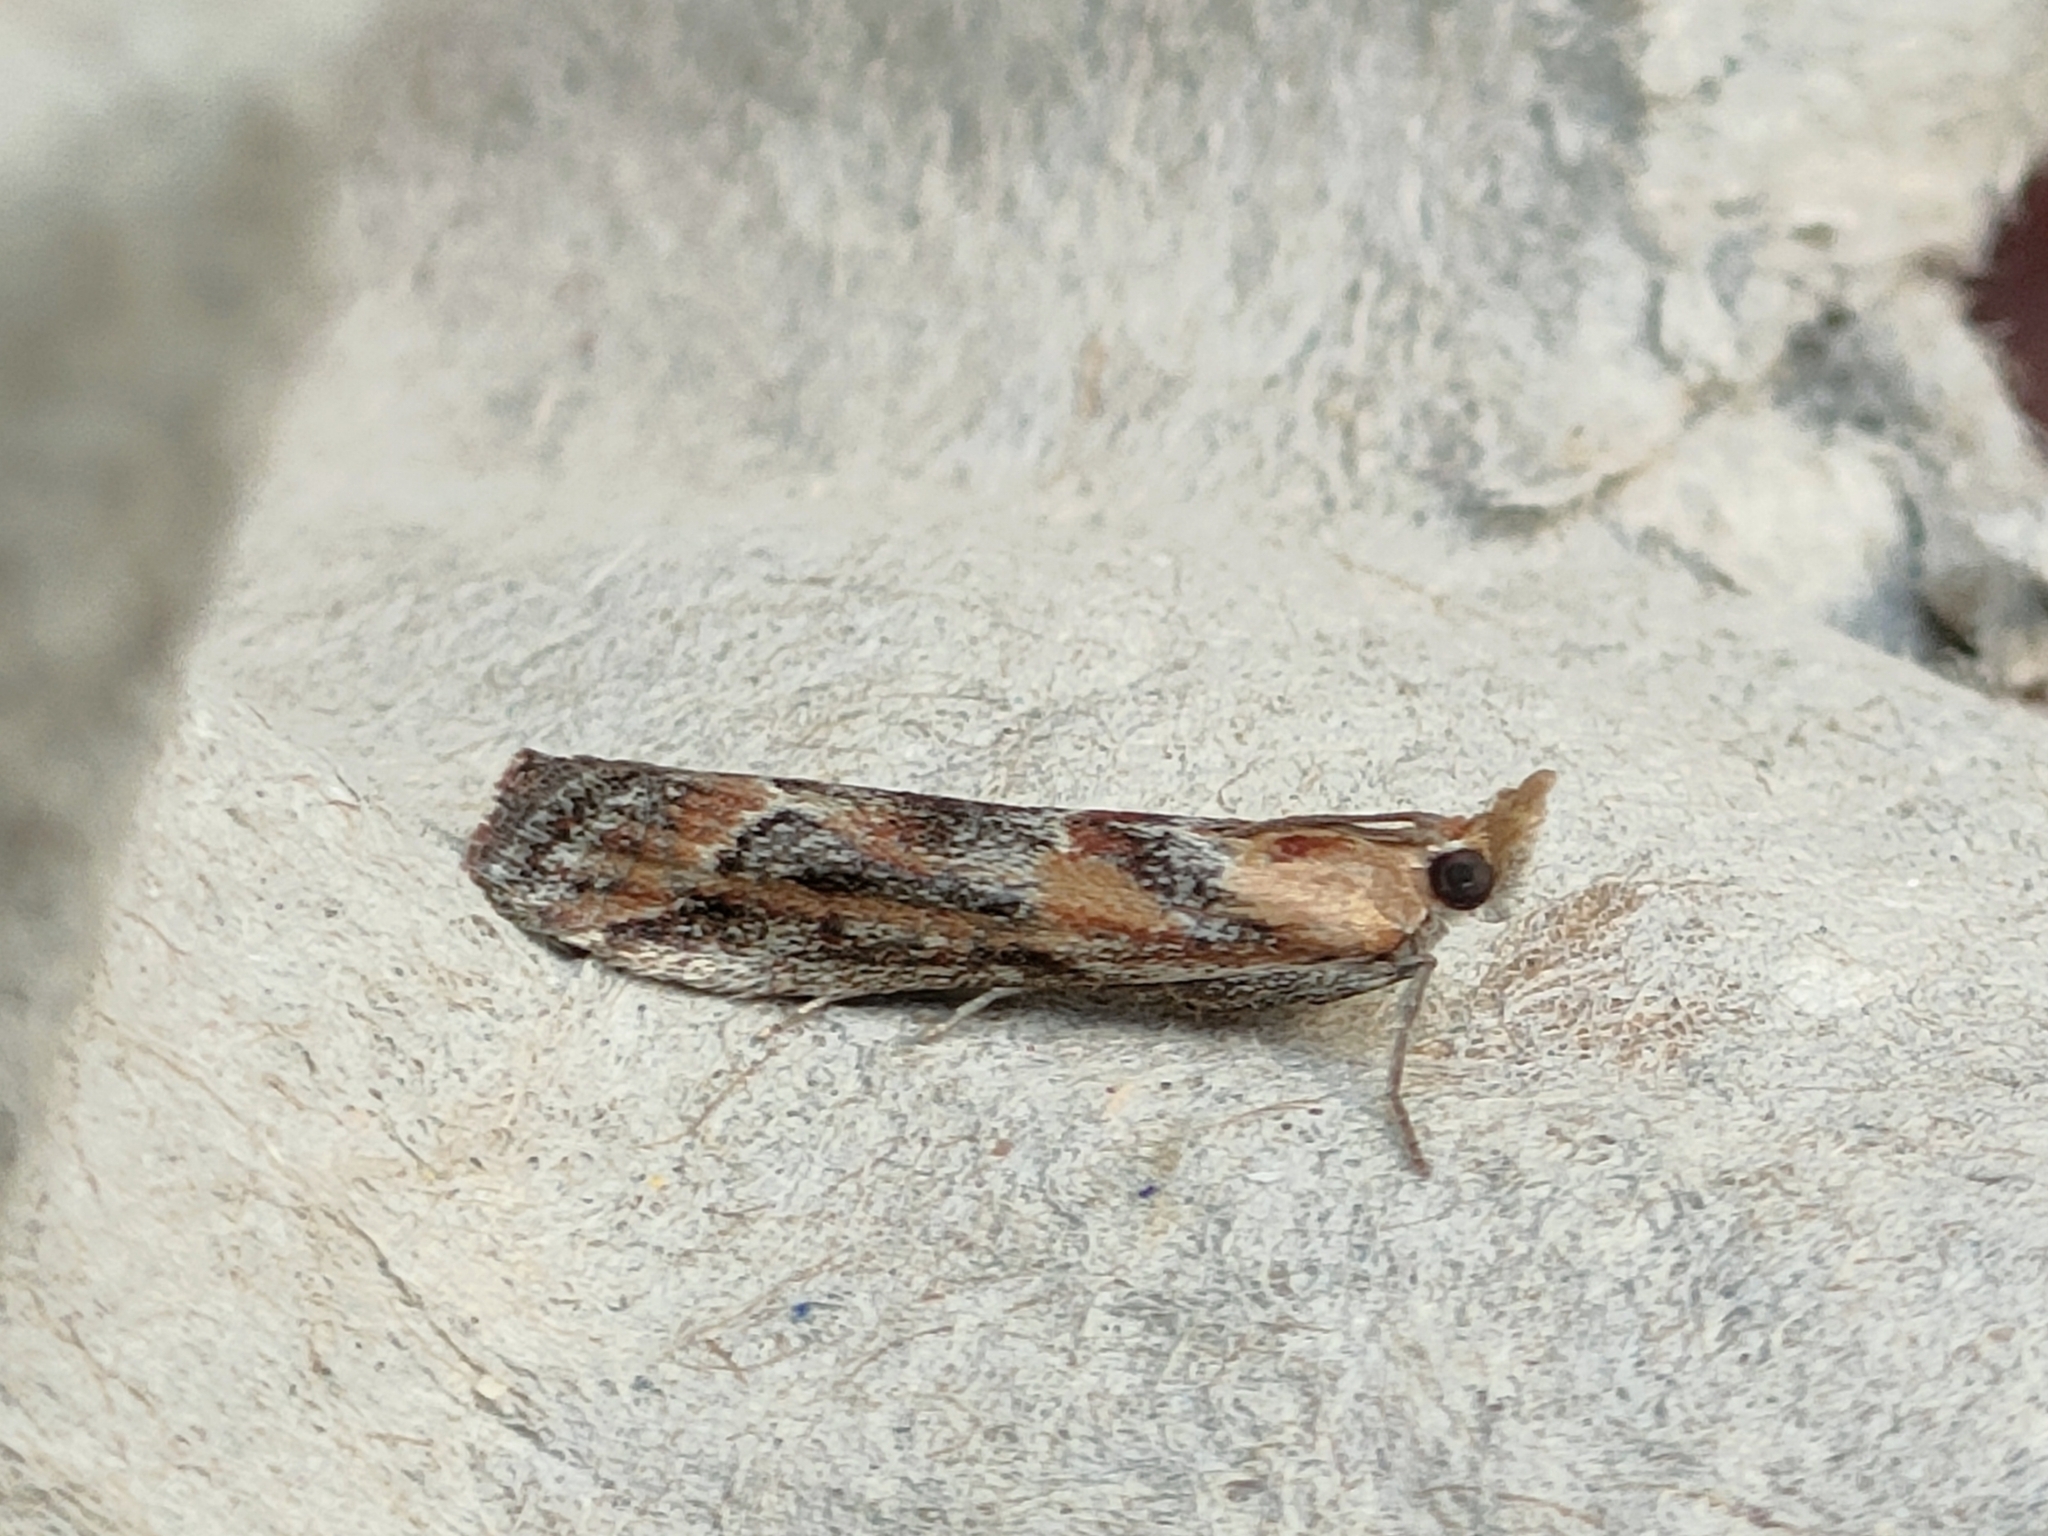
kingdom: Animalia
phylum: Arthropoda
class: Insecta
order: Lepidoptera
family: Pyralidae
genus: Ancylosis
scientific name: Ancylosis cinnamomella
